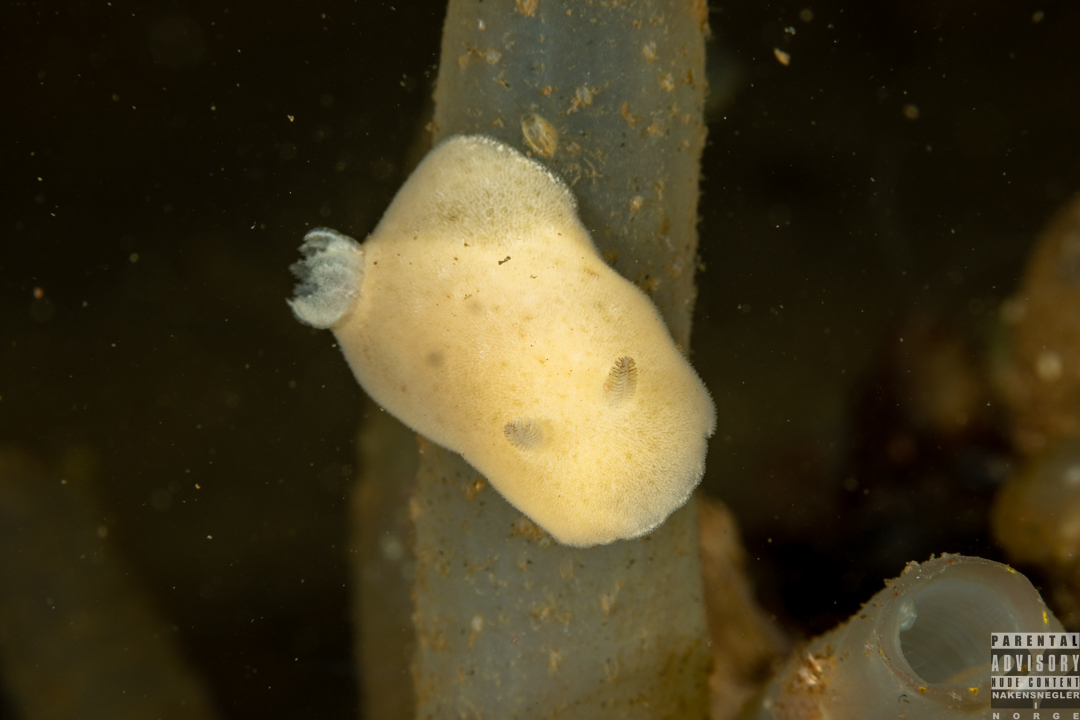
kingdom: Animalia
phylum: Mollusca
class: Gastropoda
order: Nudibranchia
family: Discodorididae
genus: Jorunna
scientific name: Jorunna tomentosa
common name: Grey sea slug
